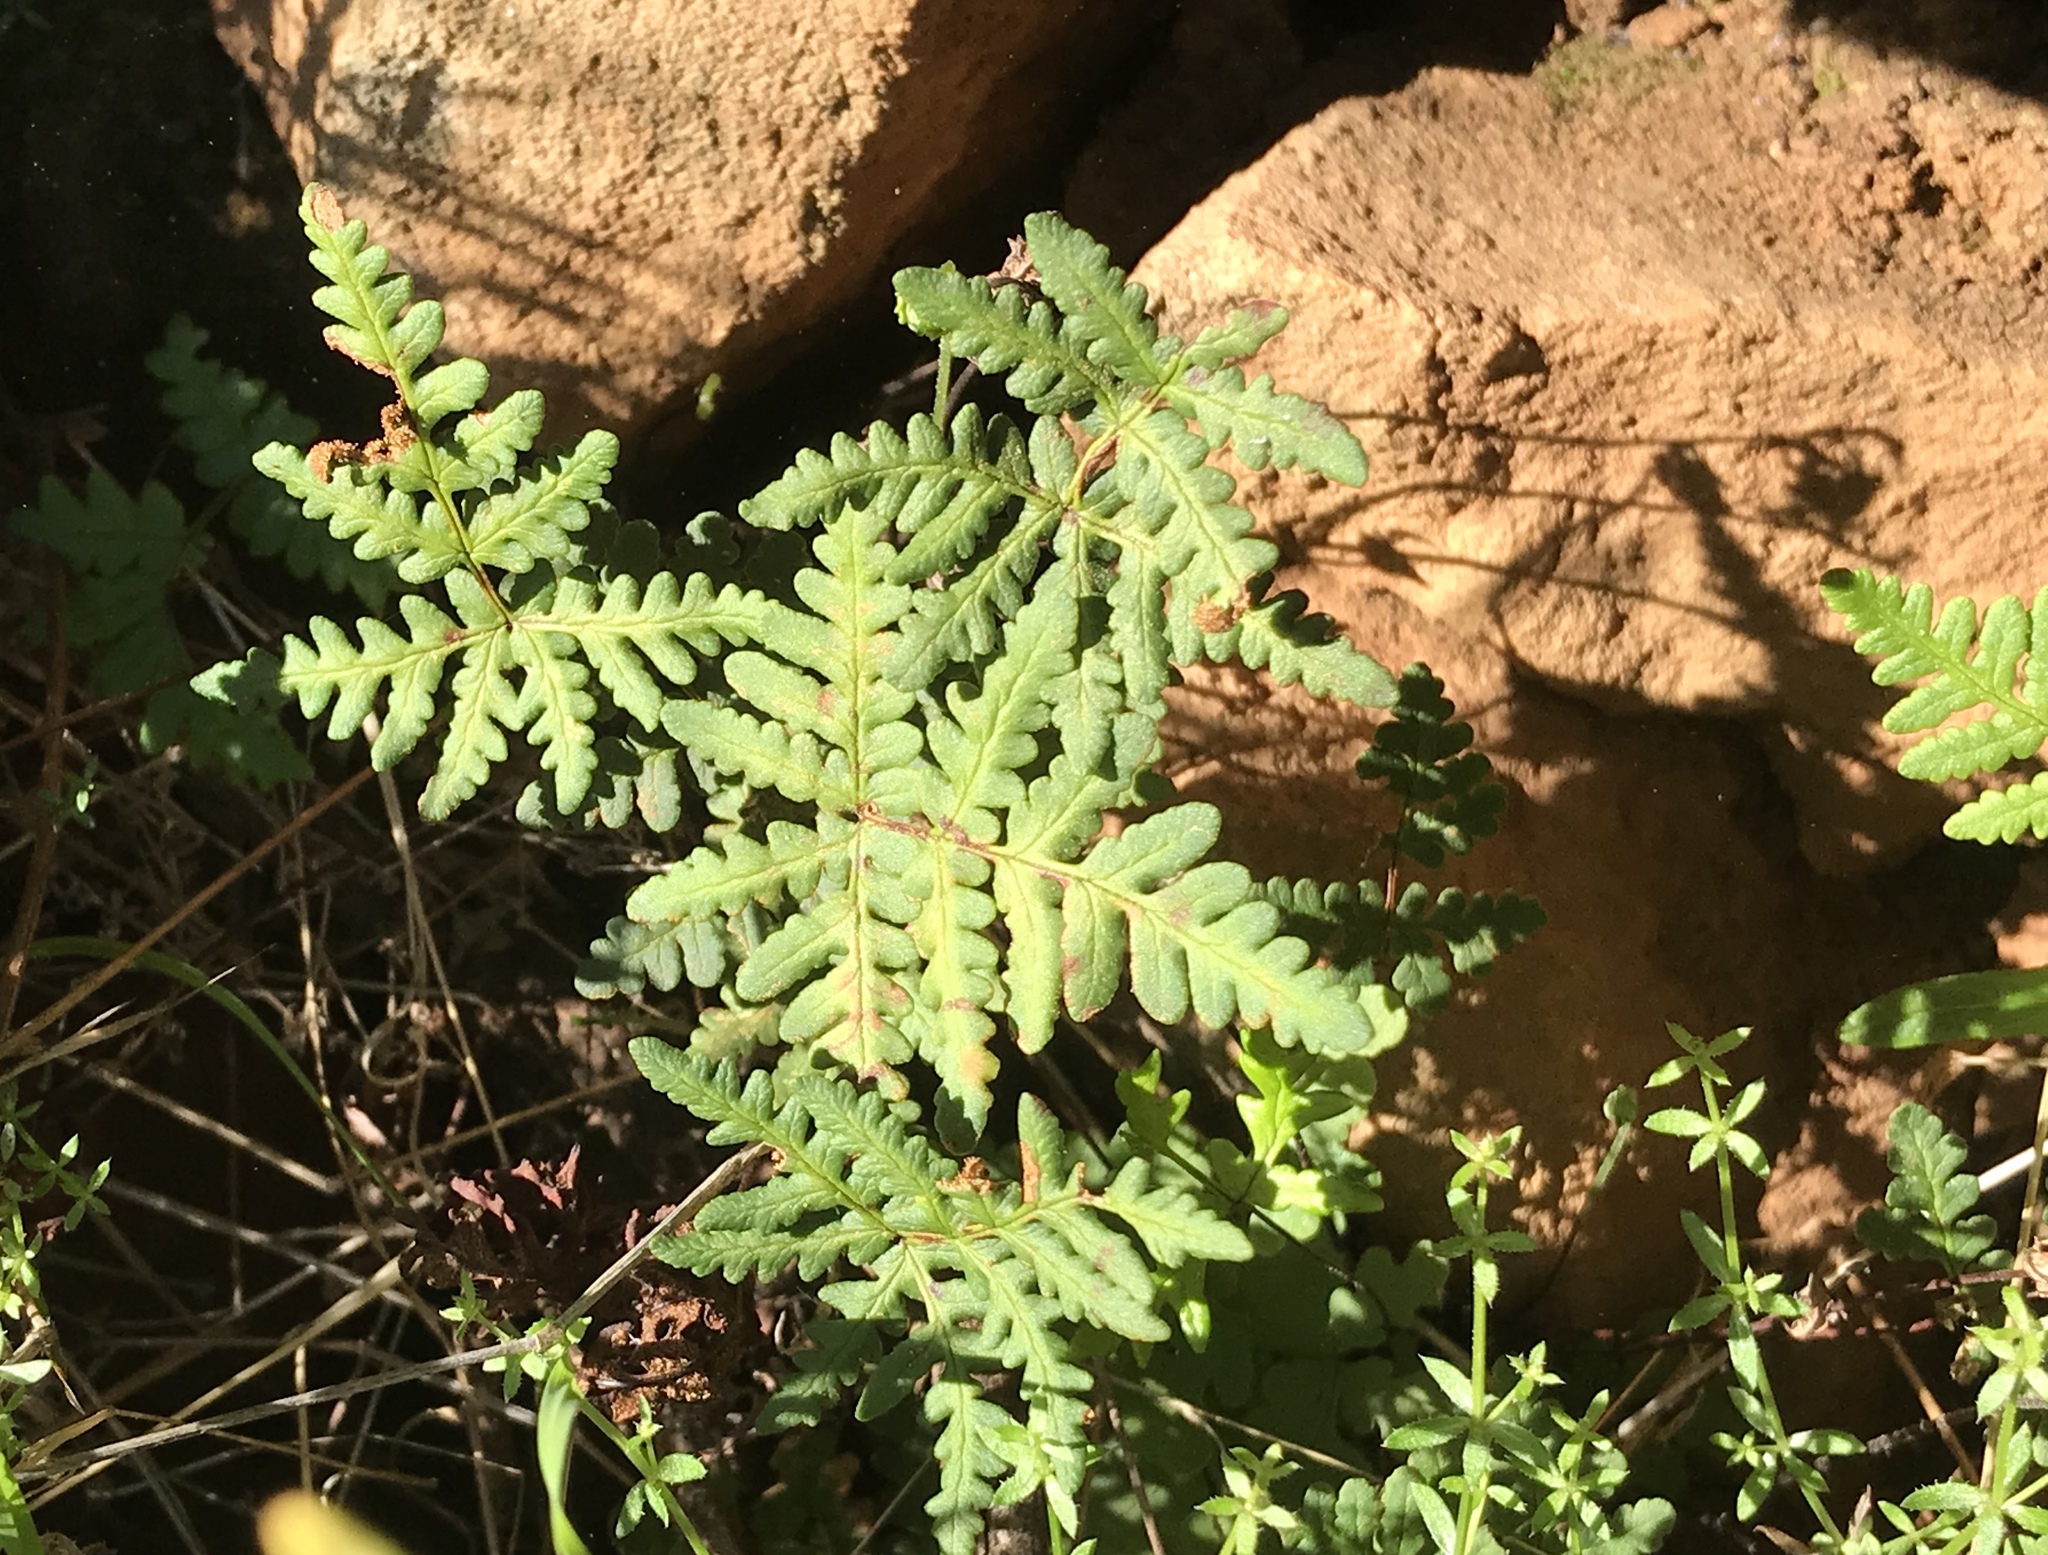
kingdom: Plantae
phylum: Tracheophyta
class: Polypodiopsida
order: Polypodiales
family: Pteridaceae
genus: Pentagramma
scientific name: Pentagramma triangularis
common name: Gold fern
